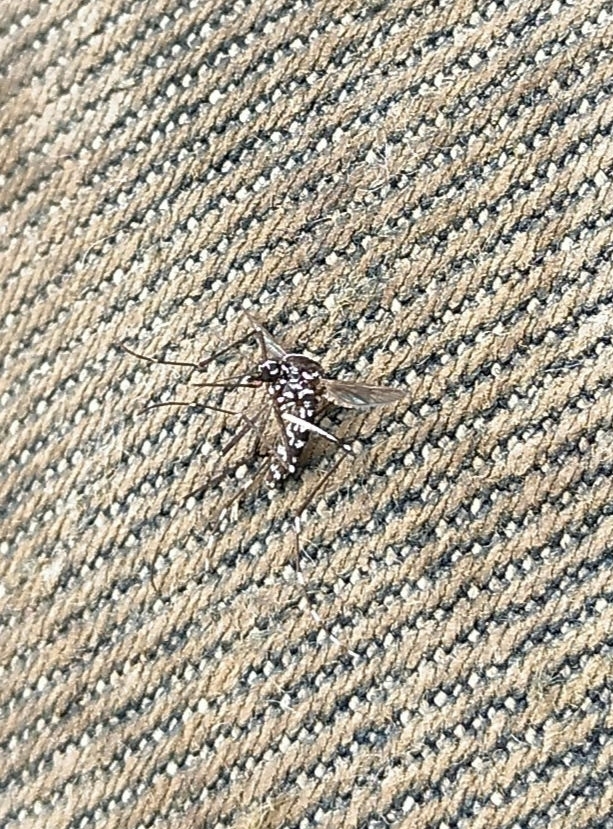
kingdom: Animalia
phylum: Arthropoda
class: Insecta
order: Diptera
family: Culicidae
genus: Aedes
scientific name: Aedes albopictus
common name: Tiger mosquito
